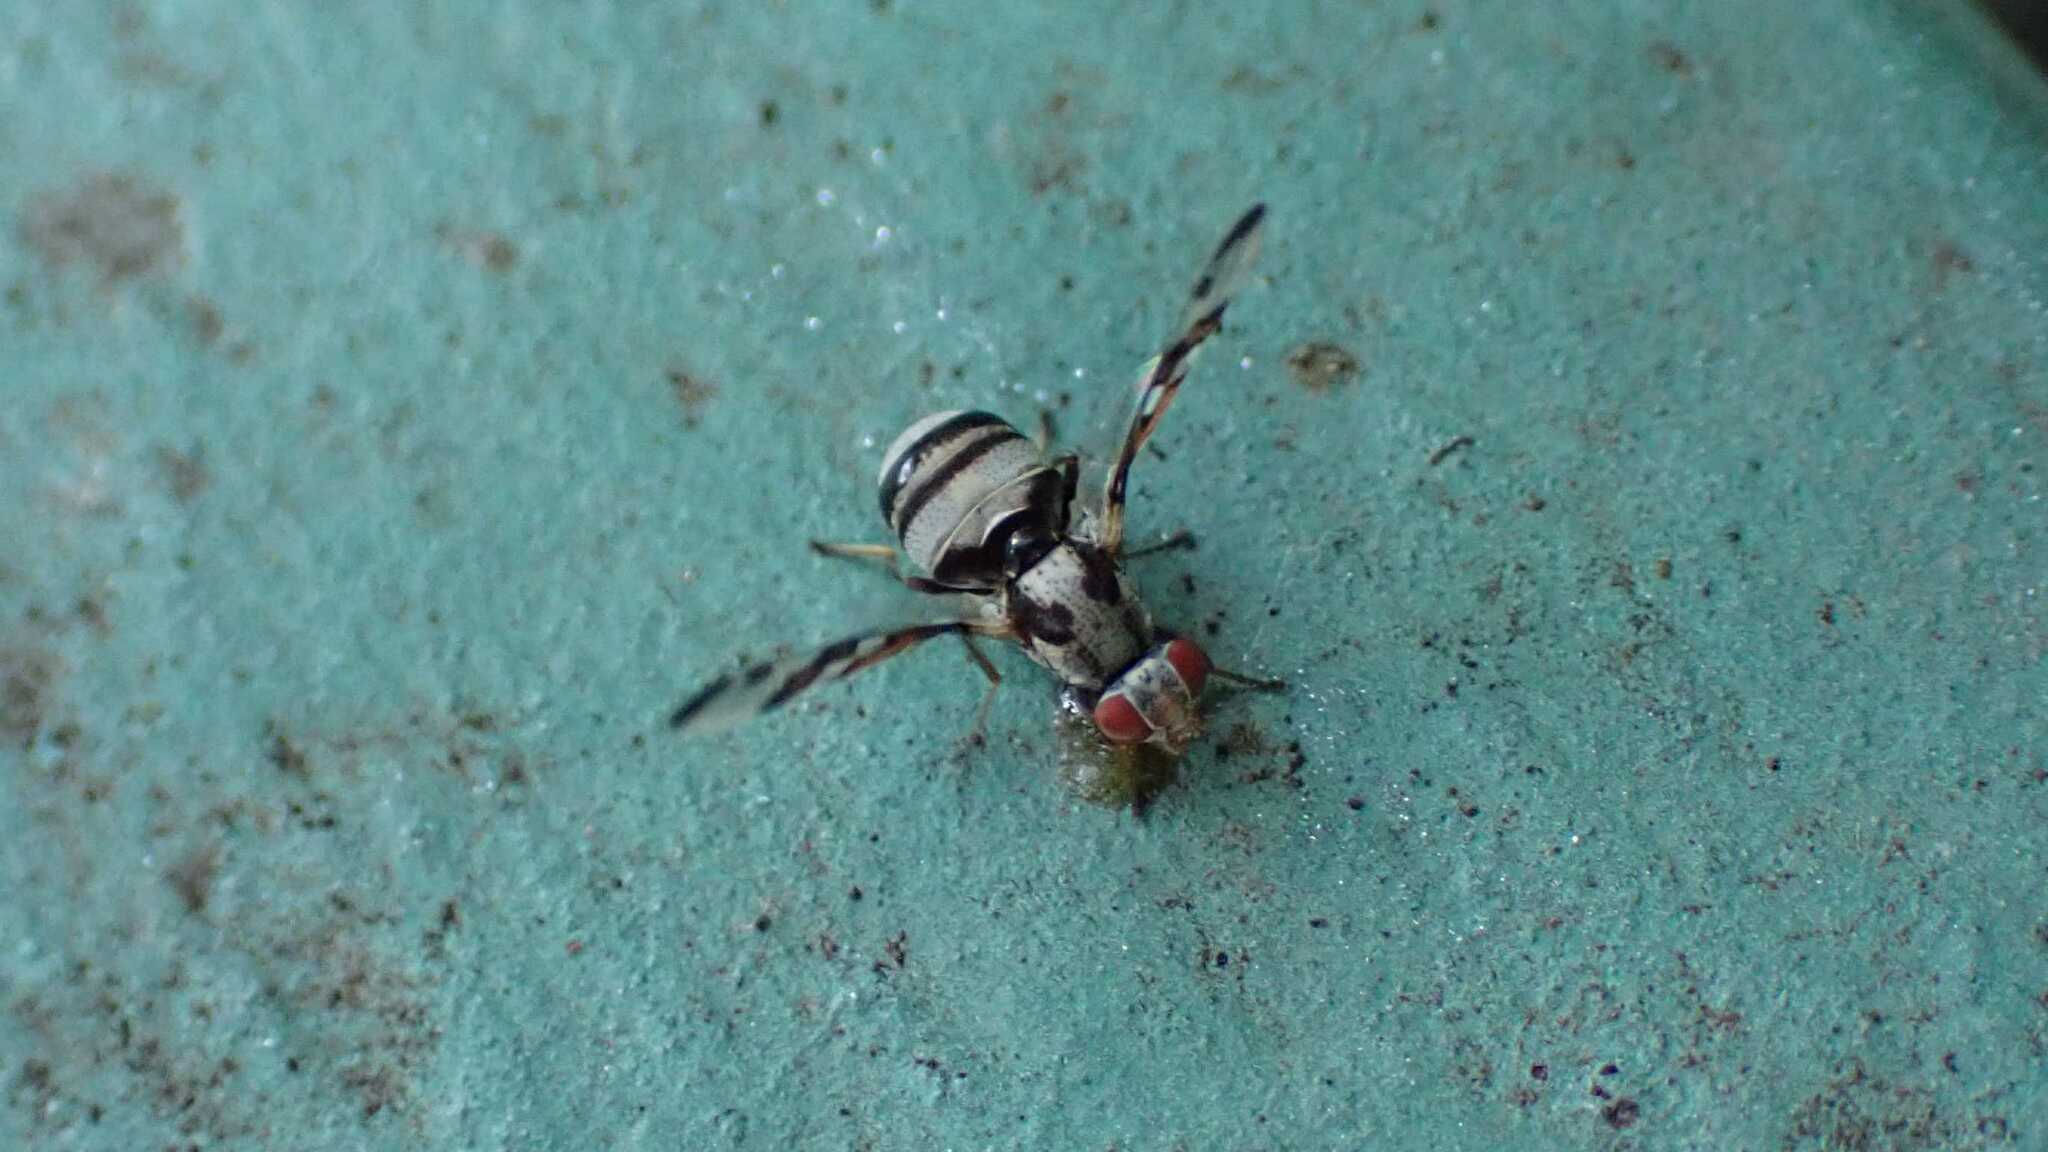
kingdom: Animalia
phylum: Arthropoda
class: Insecta
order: Diptera
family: Ulidiidae
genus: Myennis
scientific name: Myennis octopunctata
